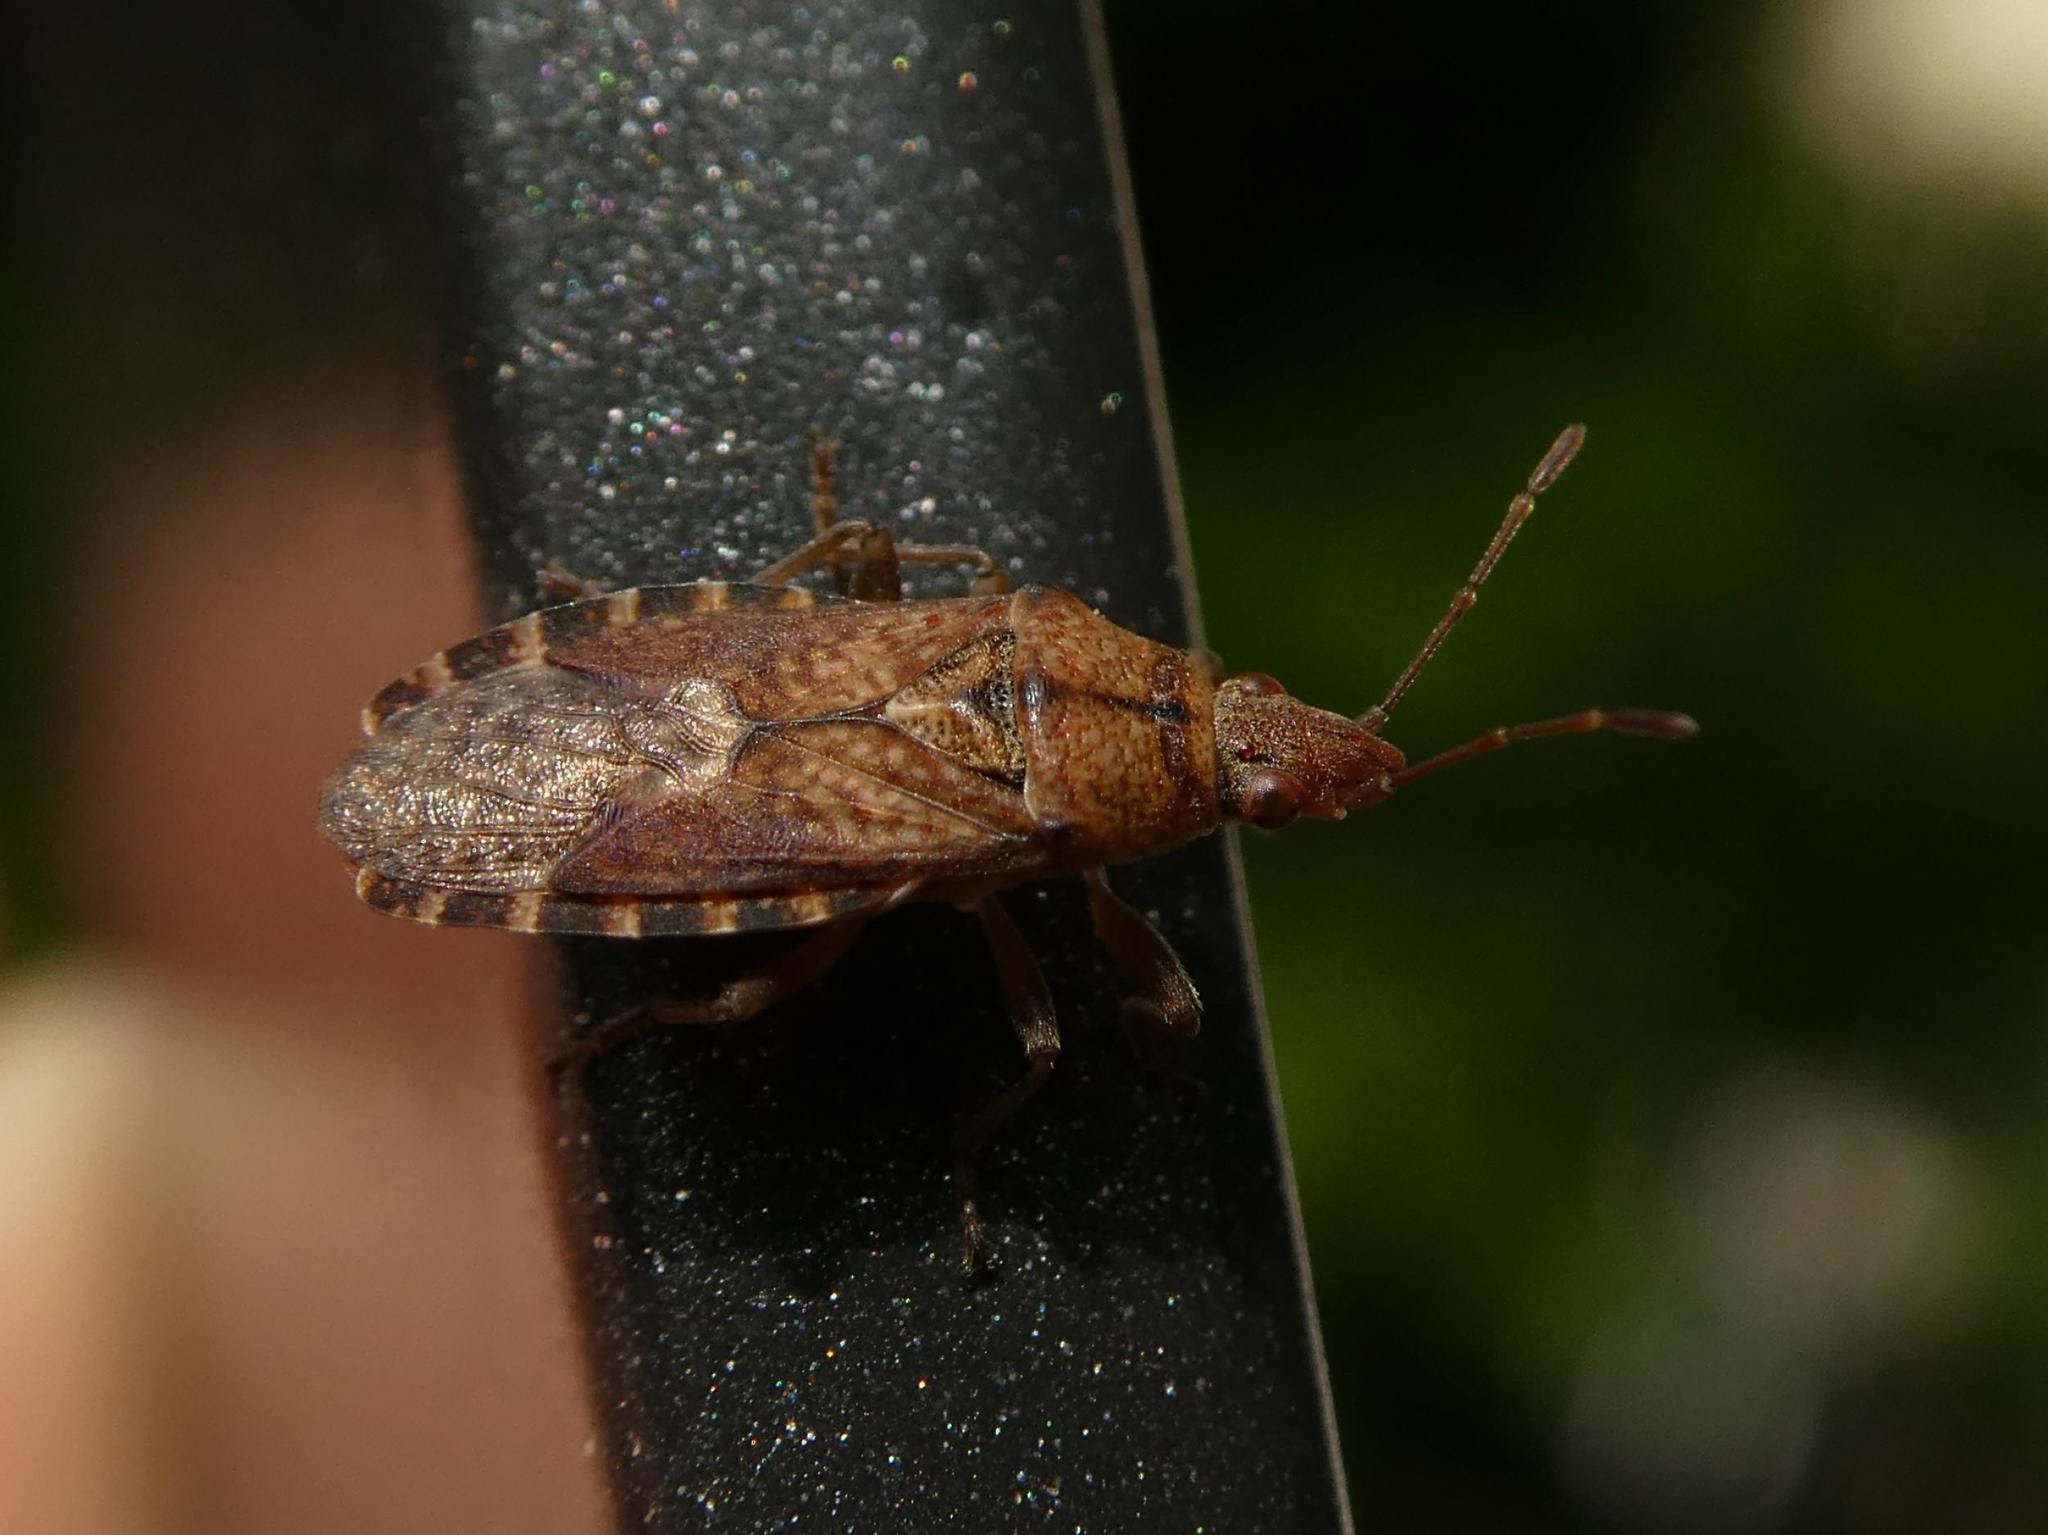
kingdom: Animalia
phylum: Arthropoda
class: Insecta
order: Hemiptera
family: Lygaeidae
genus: Orsillus
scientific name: Orsillus depressus
